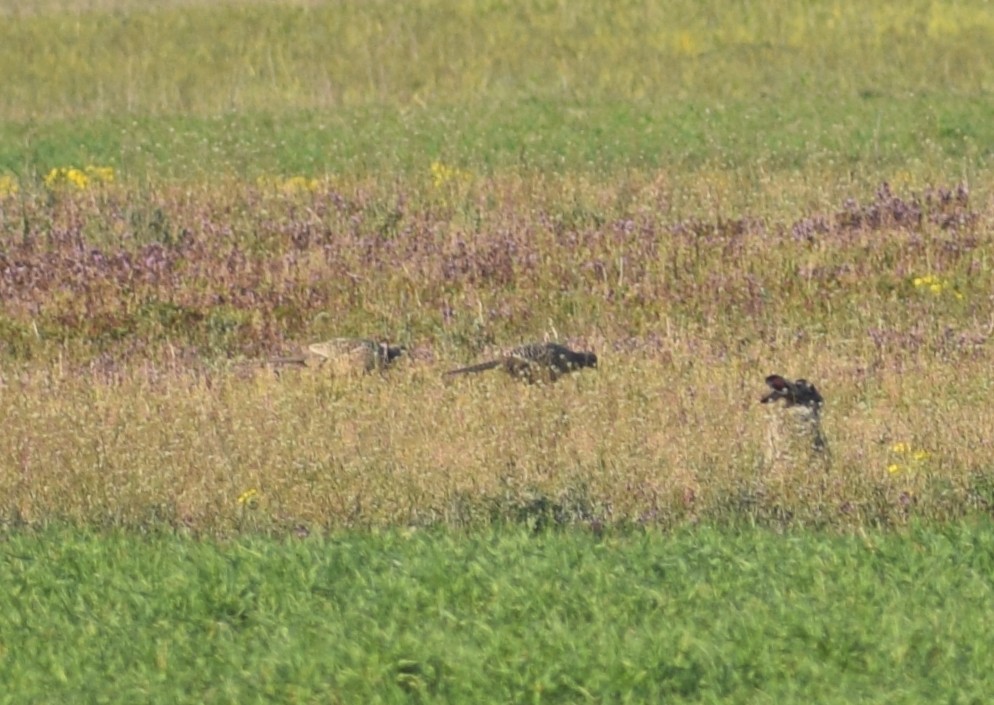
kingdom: Animalia
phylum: Chordata
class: Aves
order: Galliformes
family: Phasianidae
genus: Phasianus
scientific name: Phasianus colchicus
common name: Common pheasant
